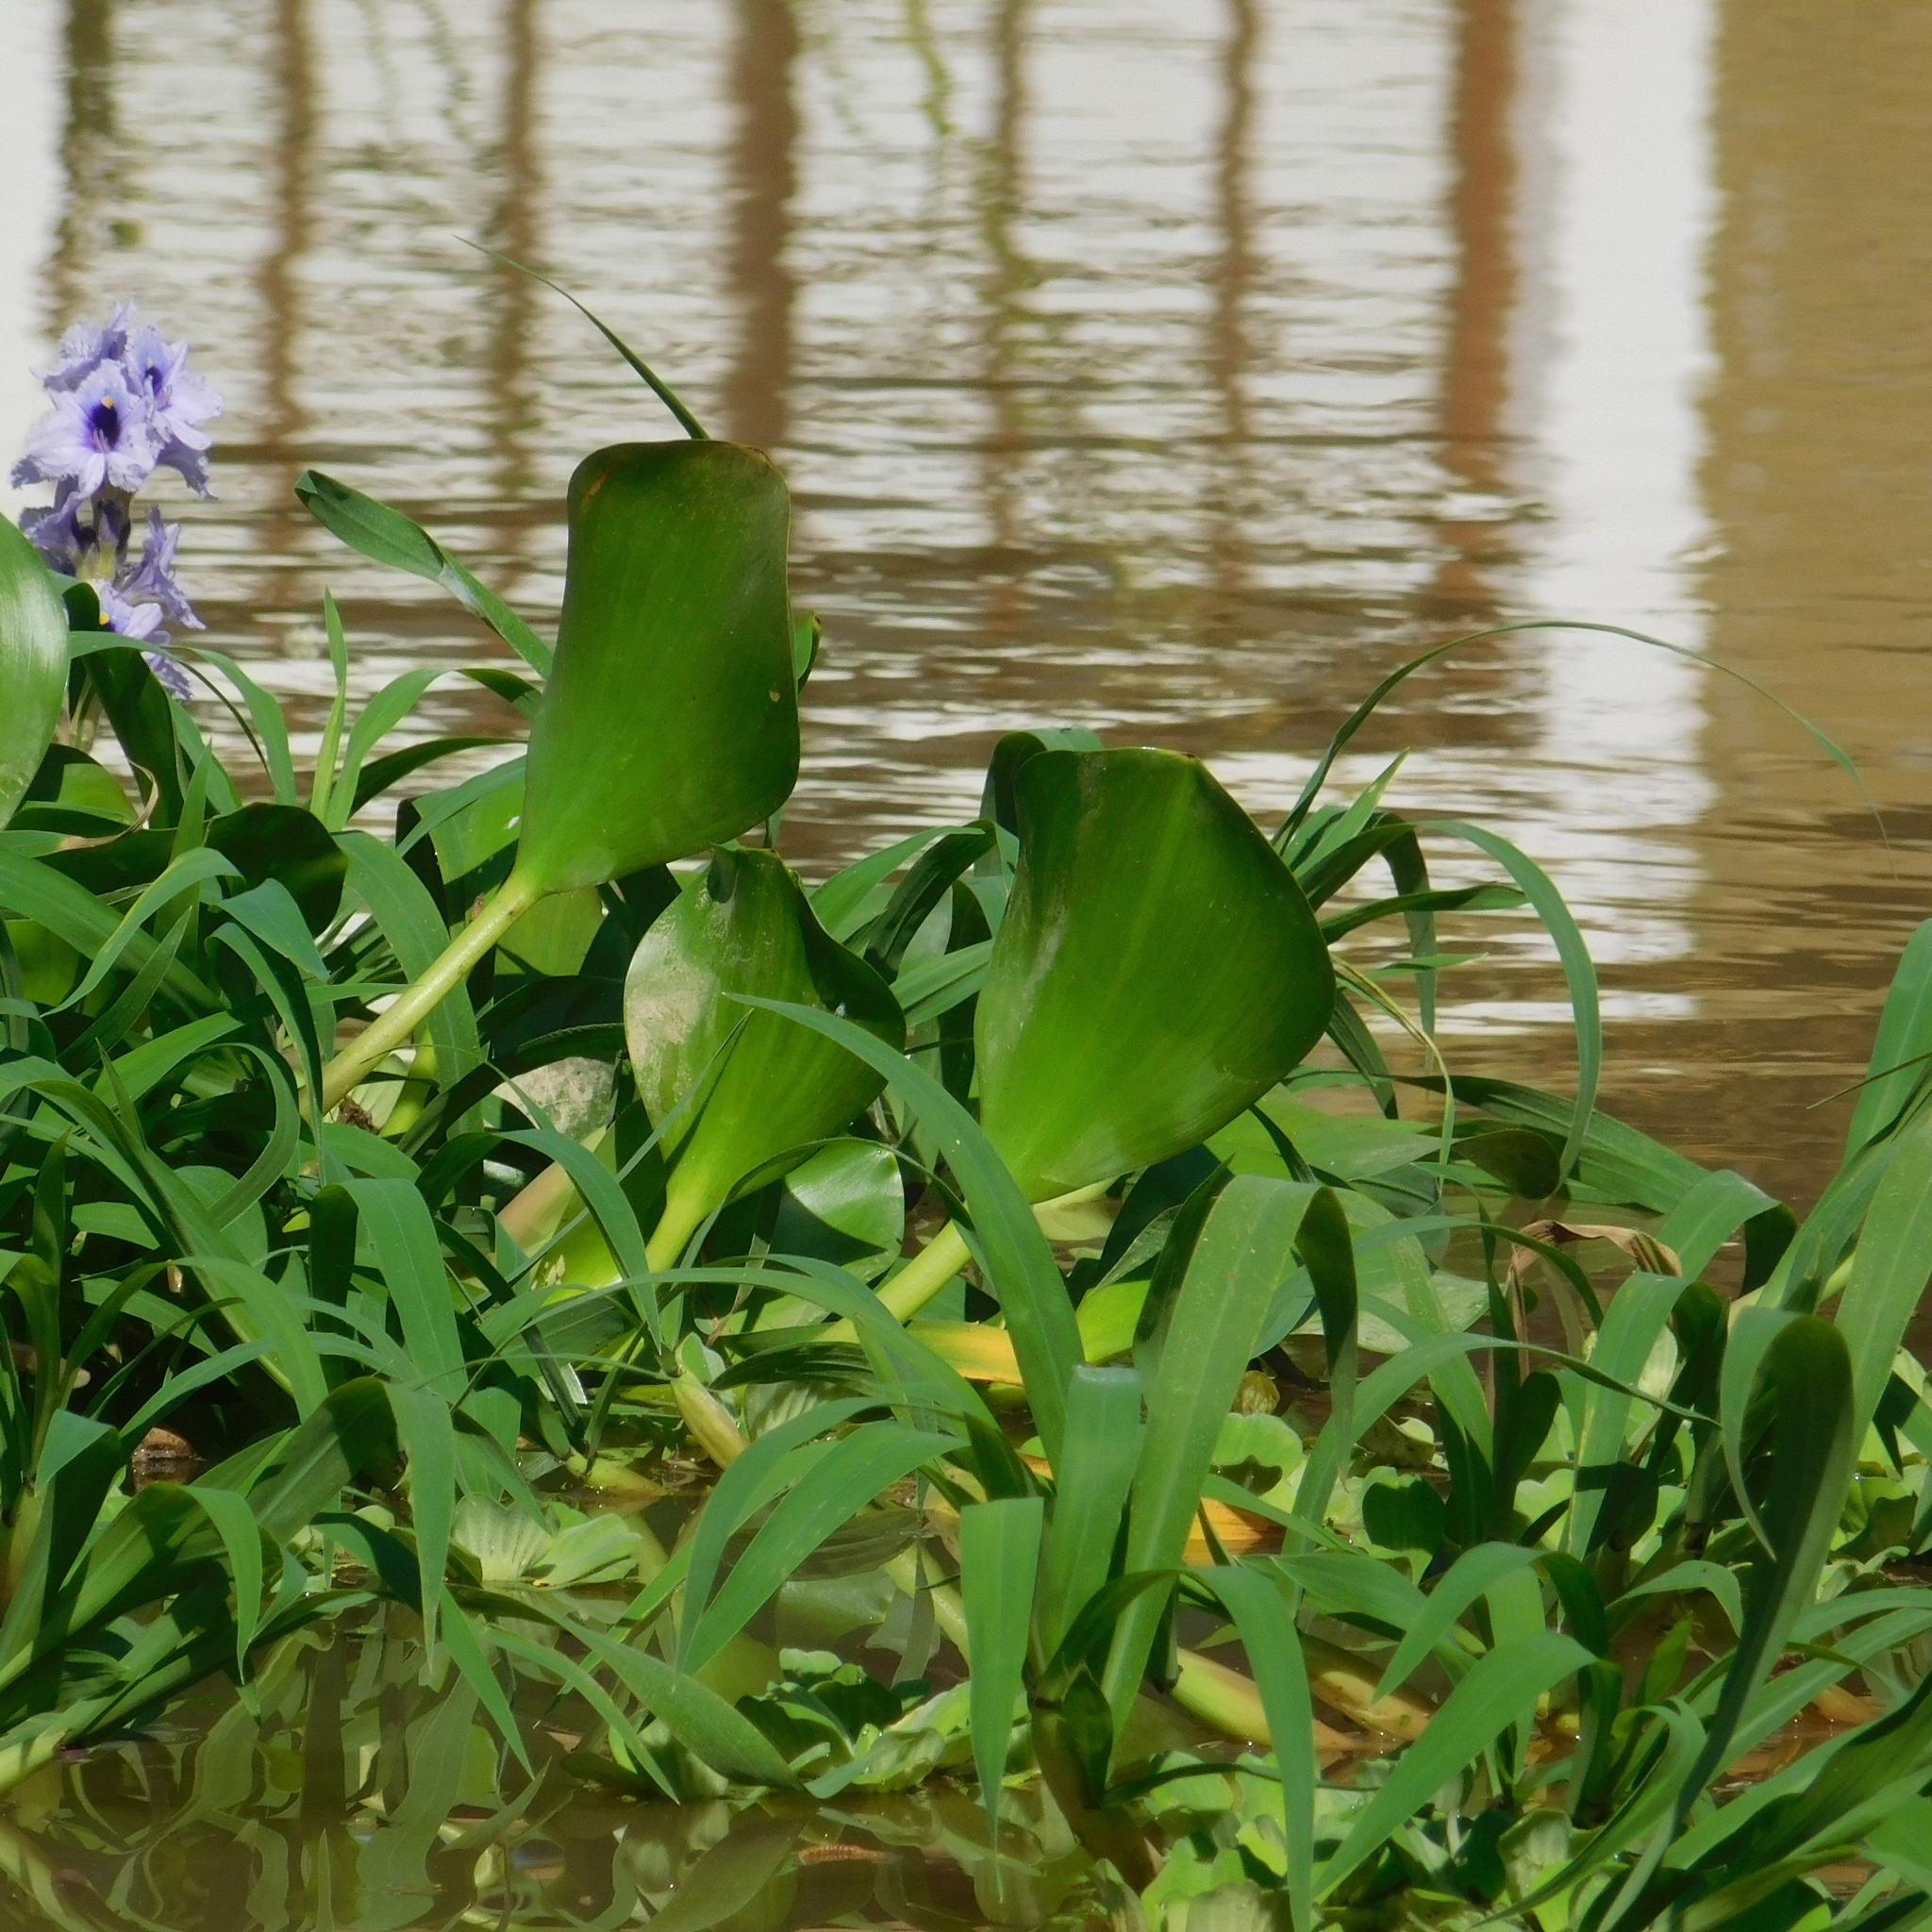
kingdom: Plantae
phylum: Tracheophyta
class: Liliopsida
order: Commelinales
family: Pontederiaceae
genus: Pontederia
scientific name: Pontederia azurea
